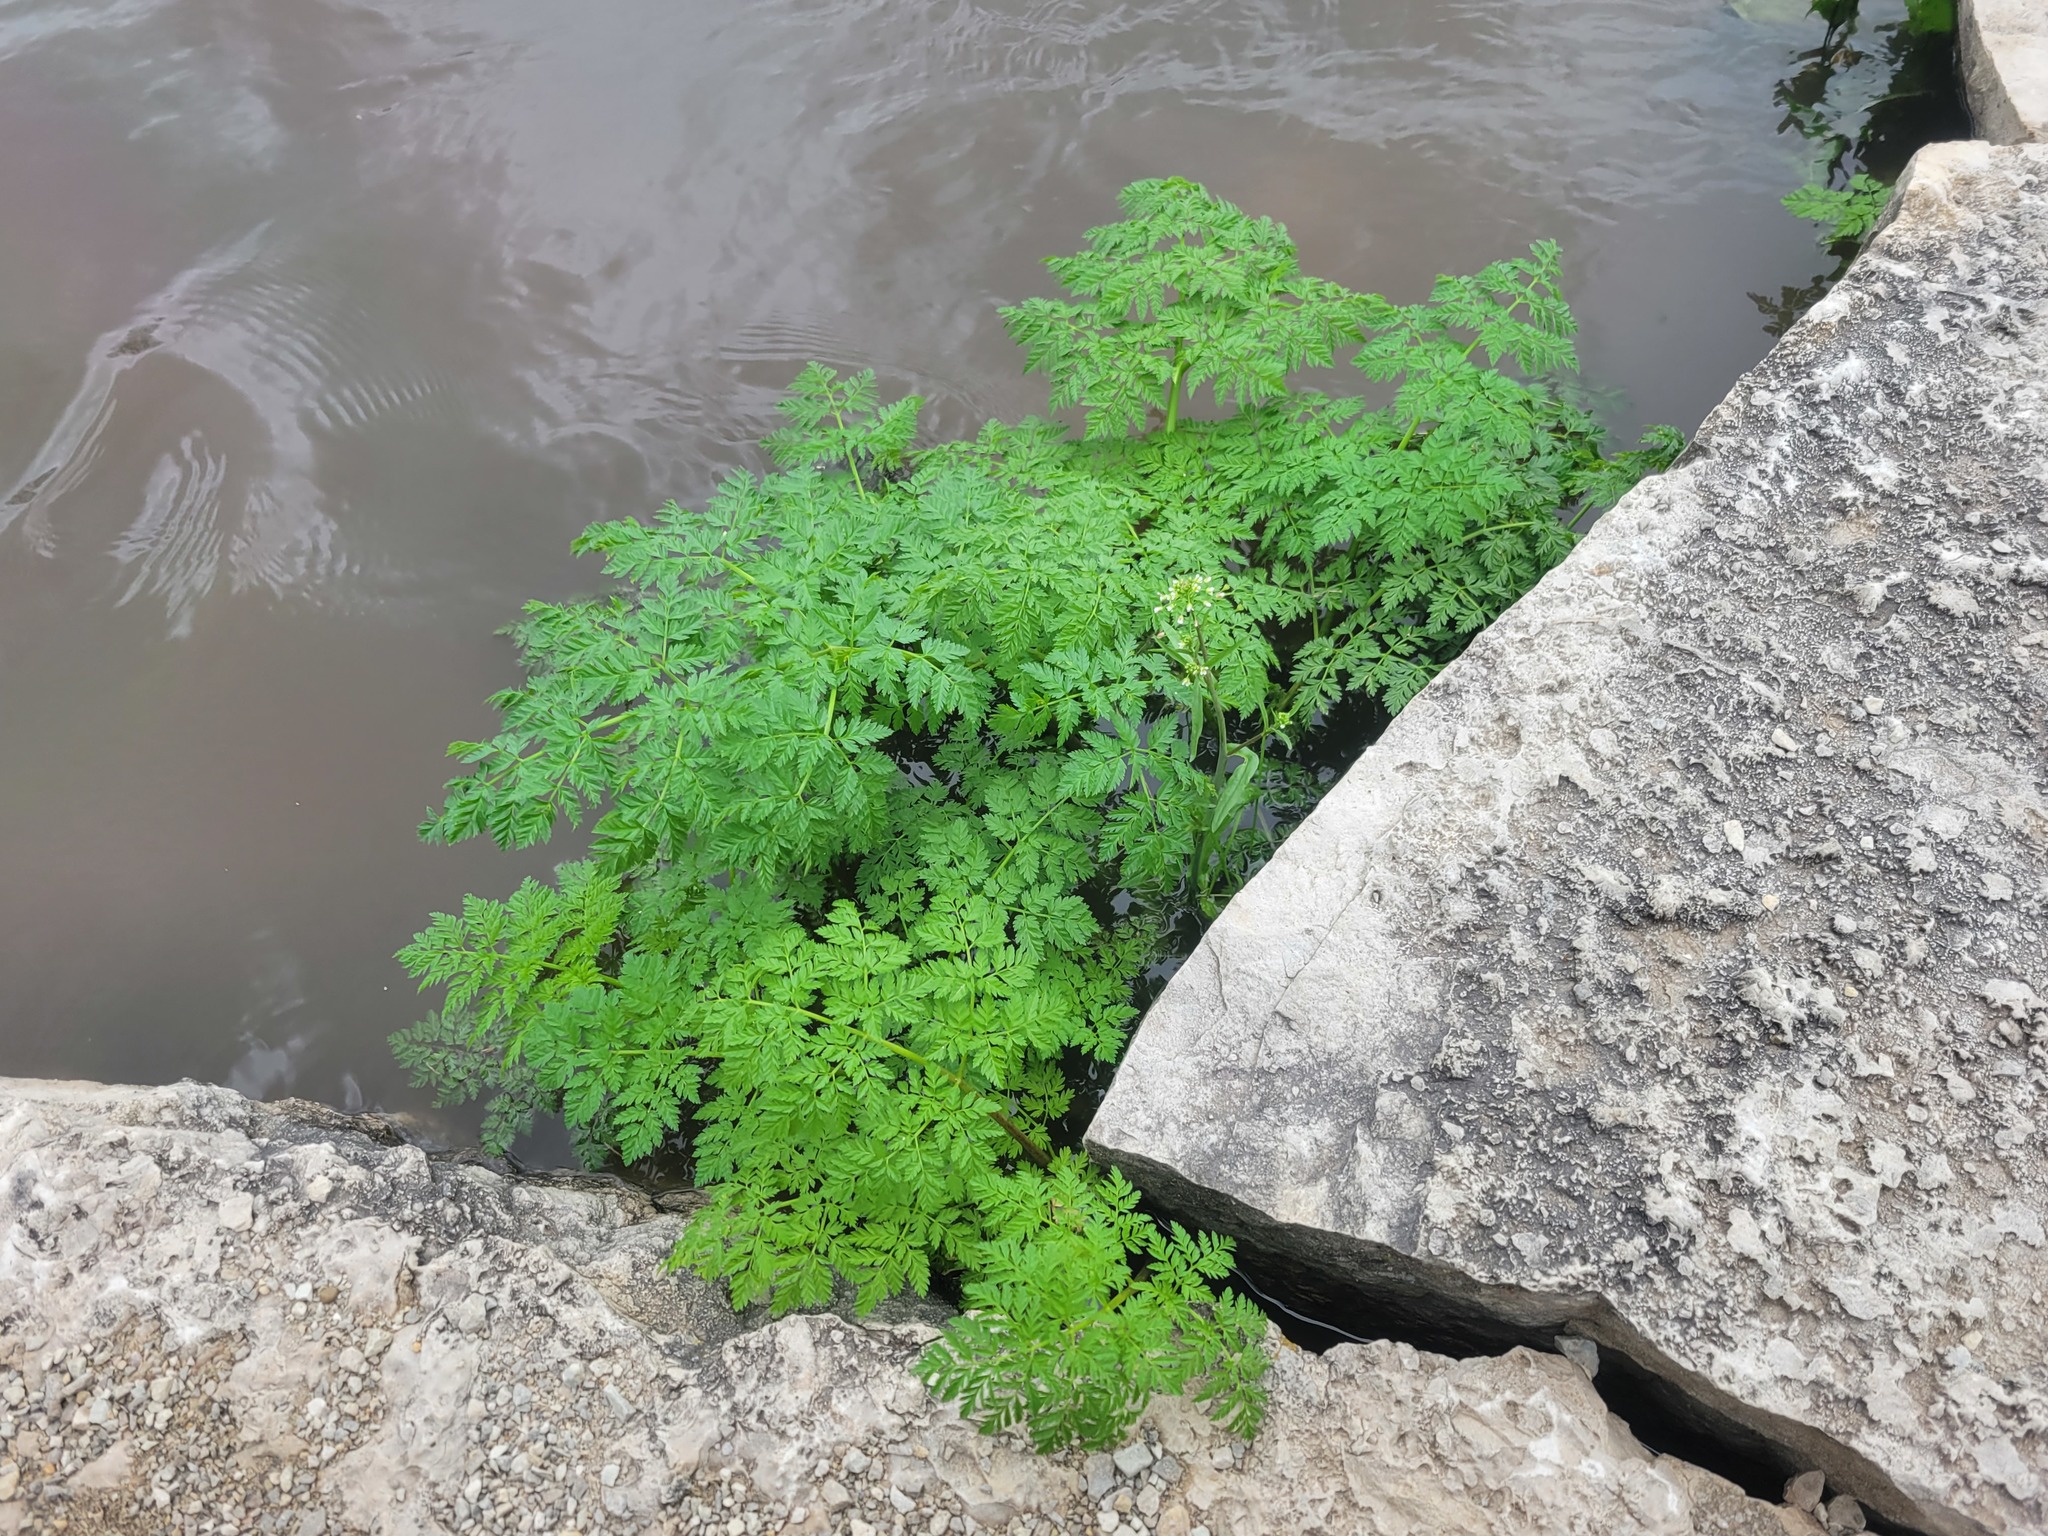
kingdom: Plantae
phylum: Tracheophyta
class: Magnoliopsida
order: Apiales
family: Apiaceae
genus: Conium
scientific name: Conium maculatum
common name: Hemlock
